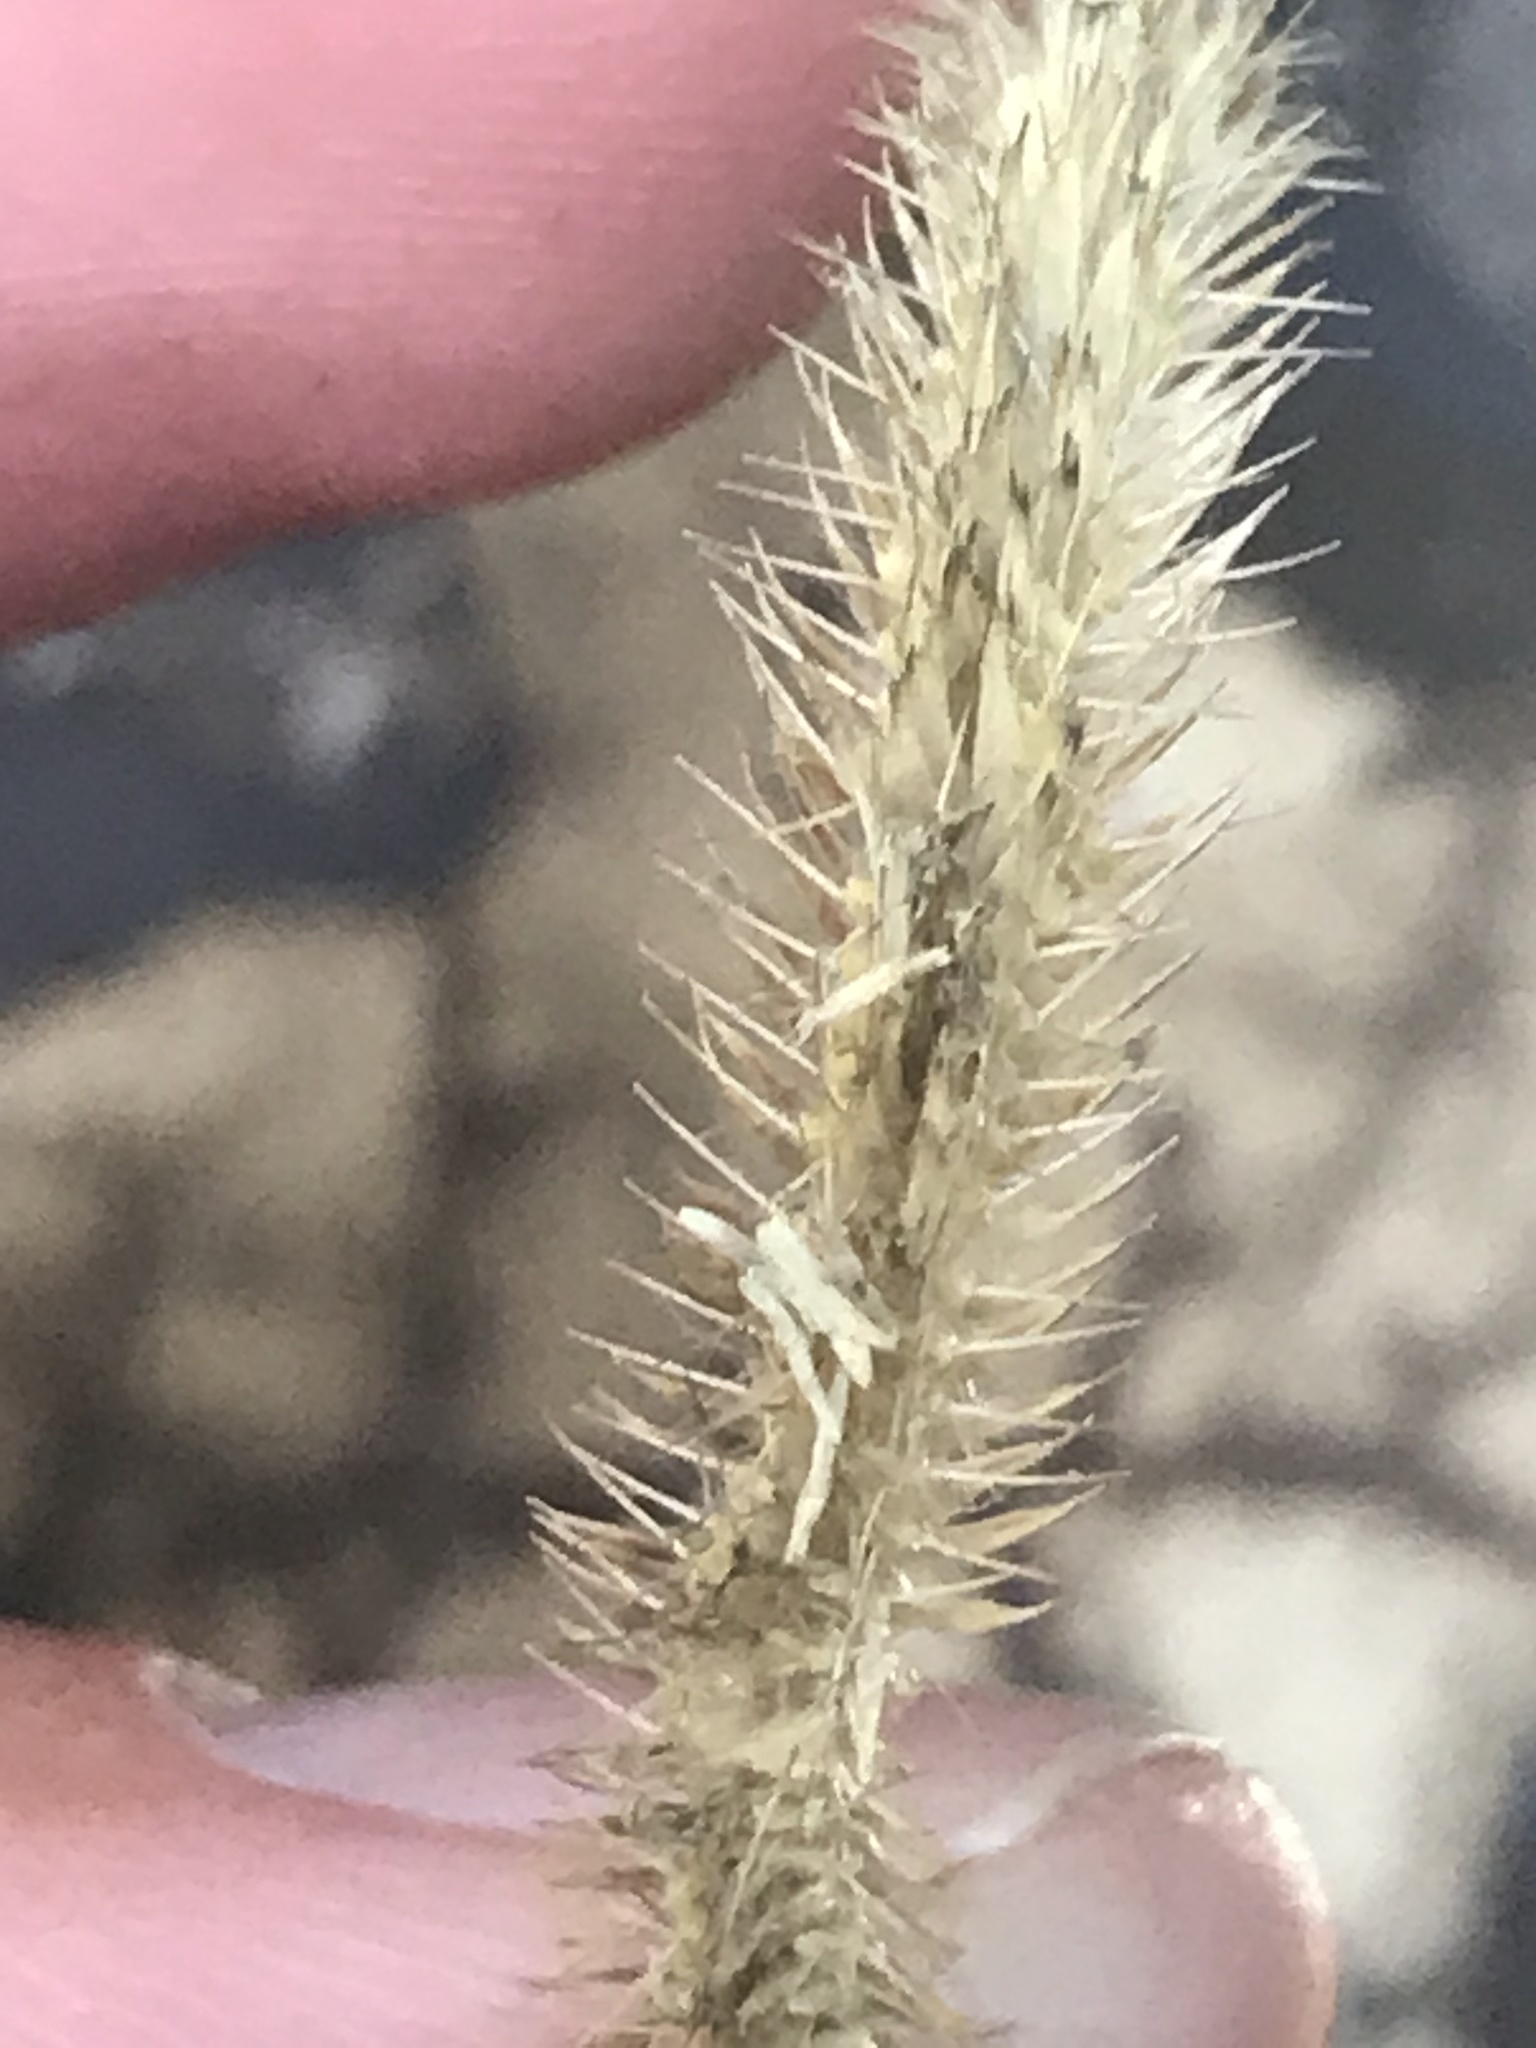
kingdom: Plantae
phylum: Tracheophyta
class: Liliopsida
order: Poales
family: Poaceae
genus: Bouteloua
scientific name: Bouteloua gracilis
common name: Blue grama
